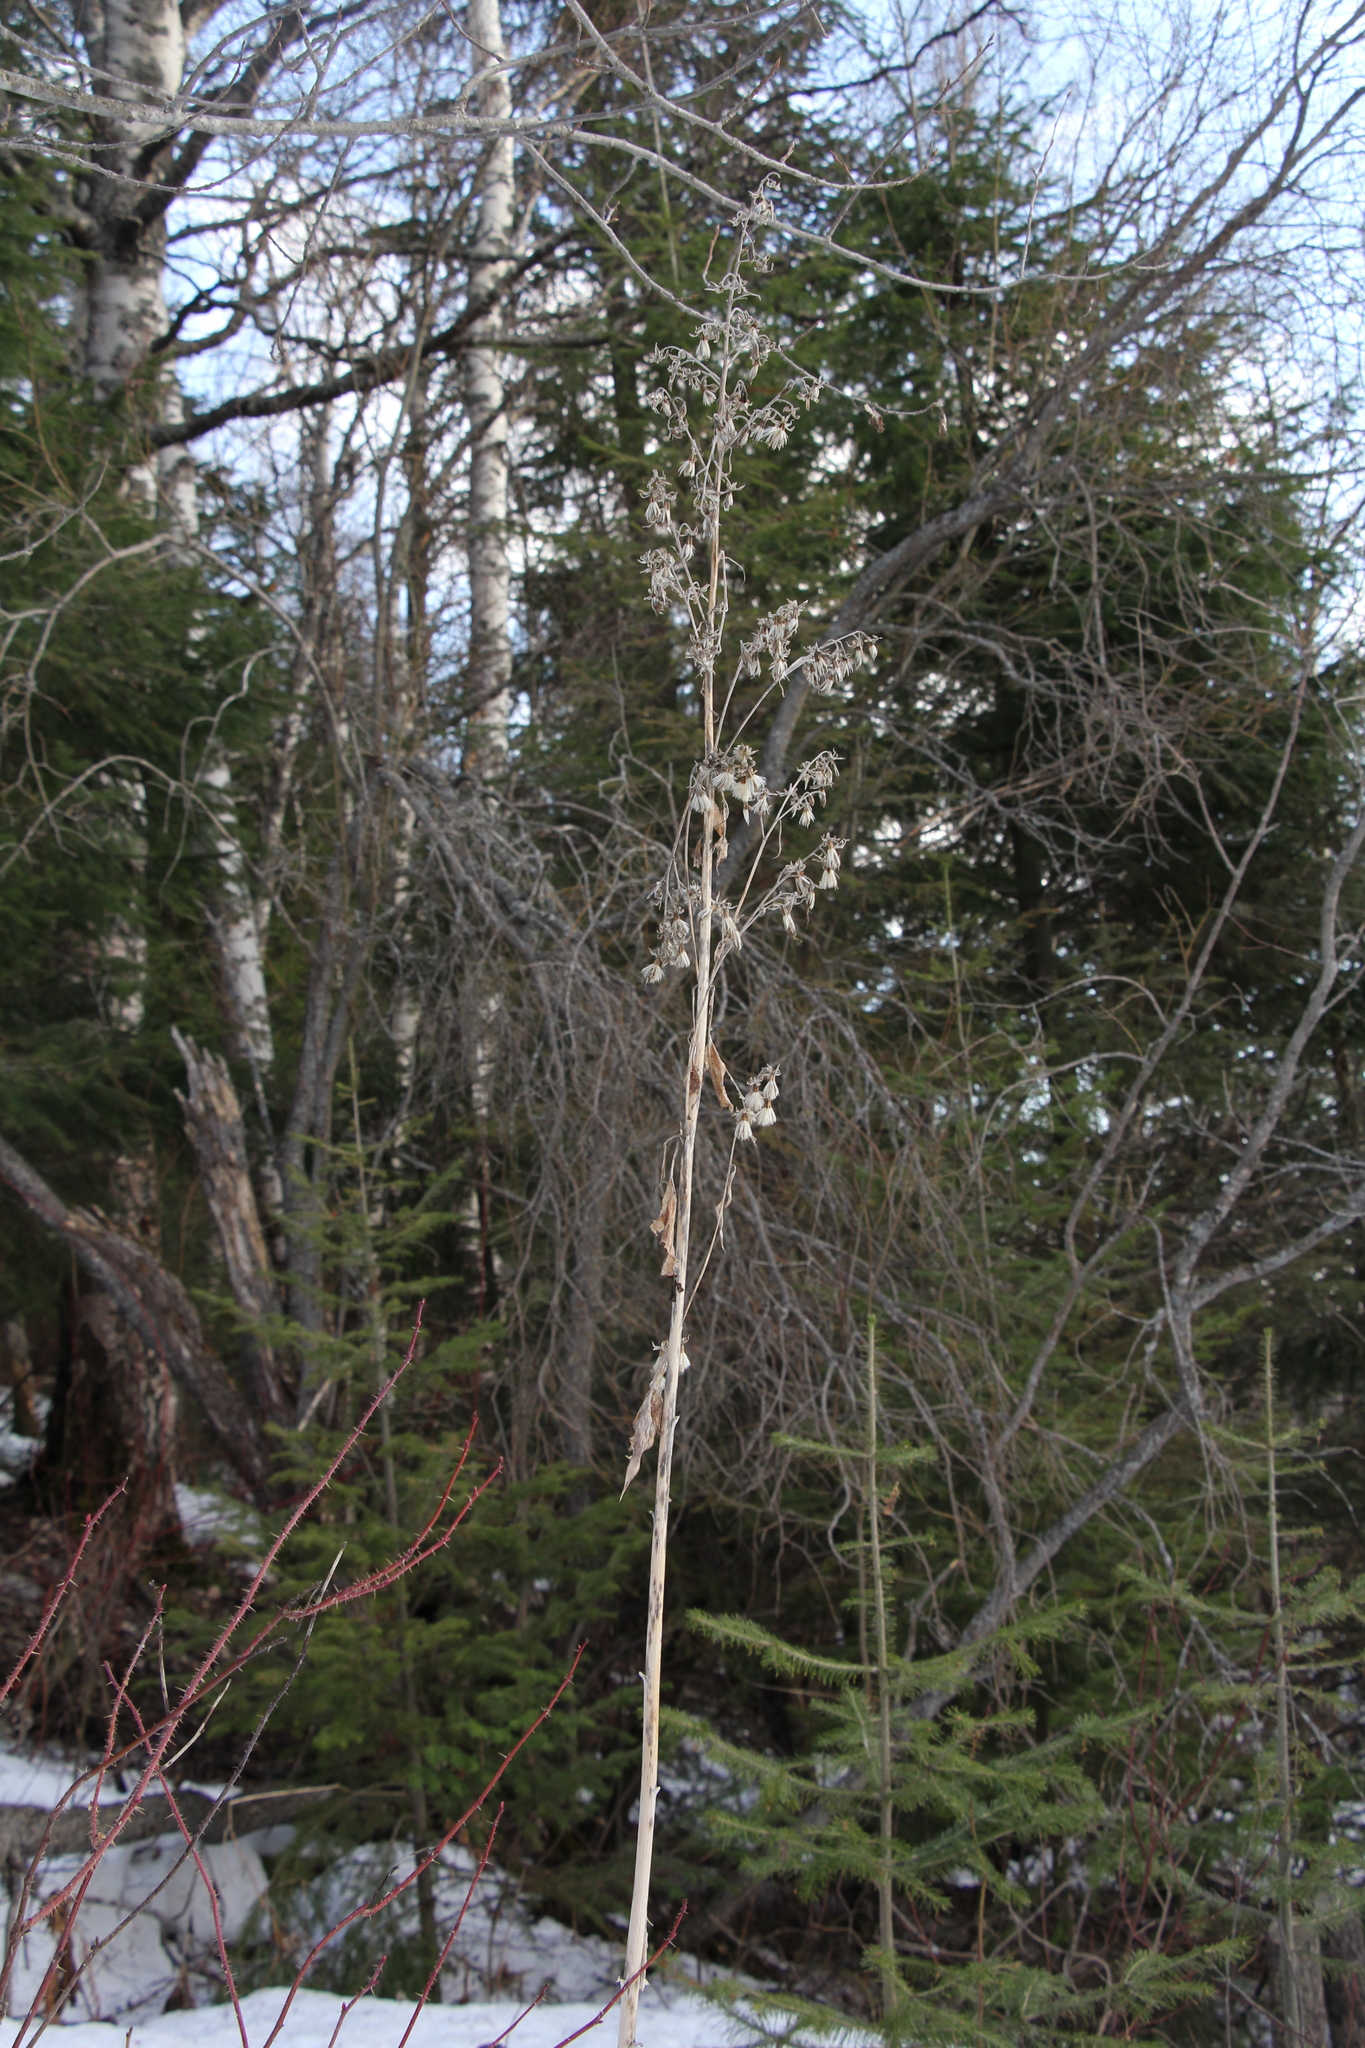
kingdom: Plantae
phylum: Tracheophyta
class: Magnoliopsida
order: Asterales
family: Asteraceae
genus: Parasenecio
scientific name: Parasenecio hastatus
